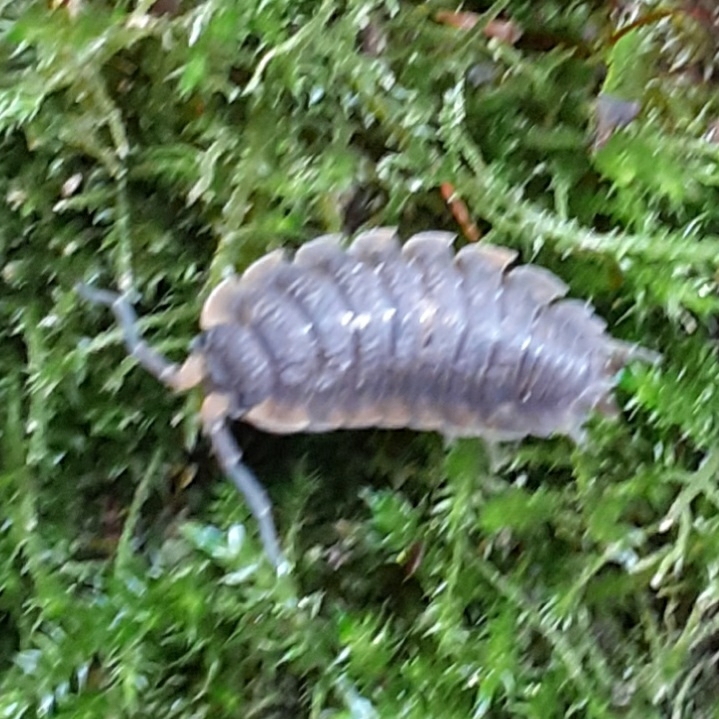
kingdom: Animalia
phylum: Arthropoda
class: Malacostraca
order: Isopoda
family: Porcellionidae
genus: Porcellio
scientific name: Porcellio scaber
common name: Common rough woodlouse
